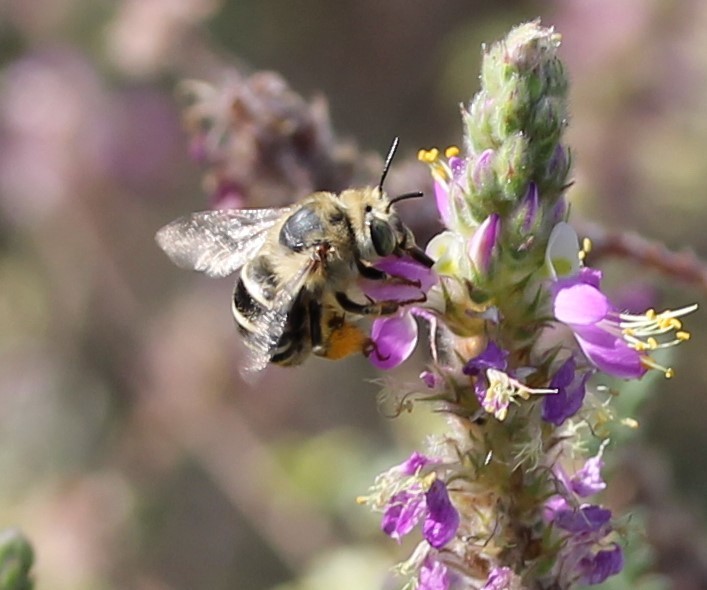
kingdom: Animalia
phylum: Arthropoda
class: Insecta
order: Hymenoptera
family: Apidae
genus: Anthophora
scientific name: Anthophora californica
